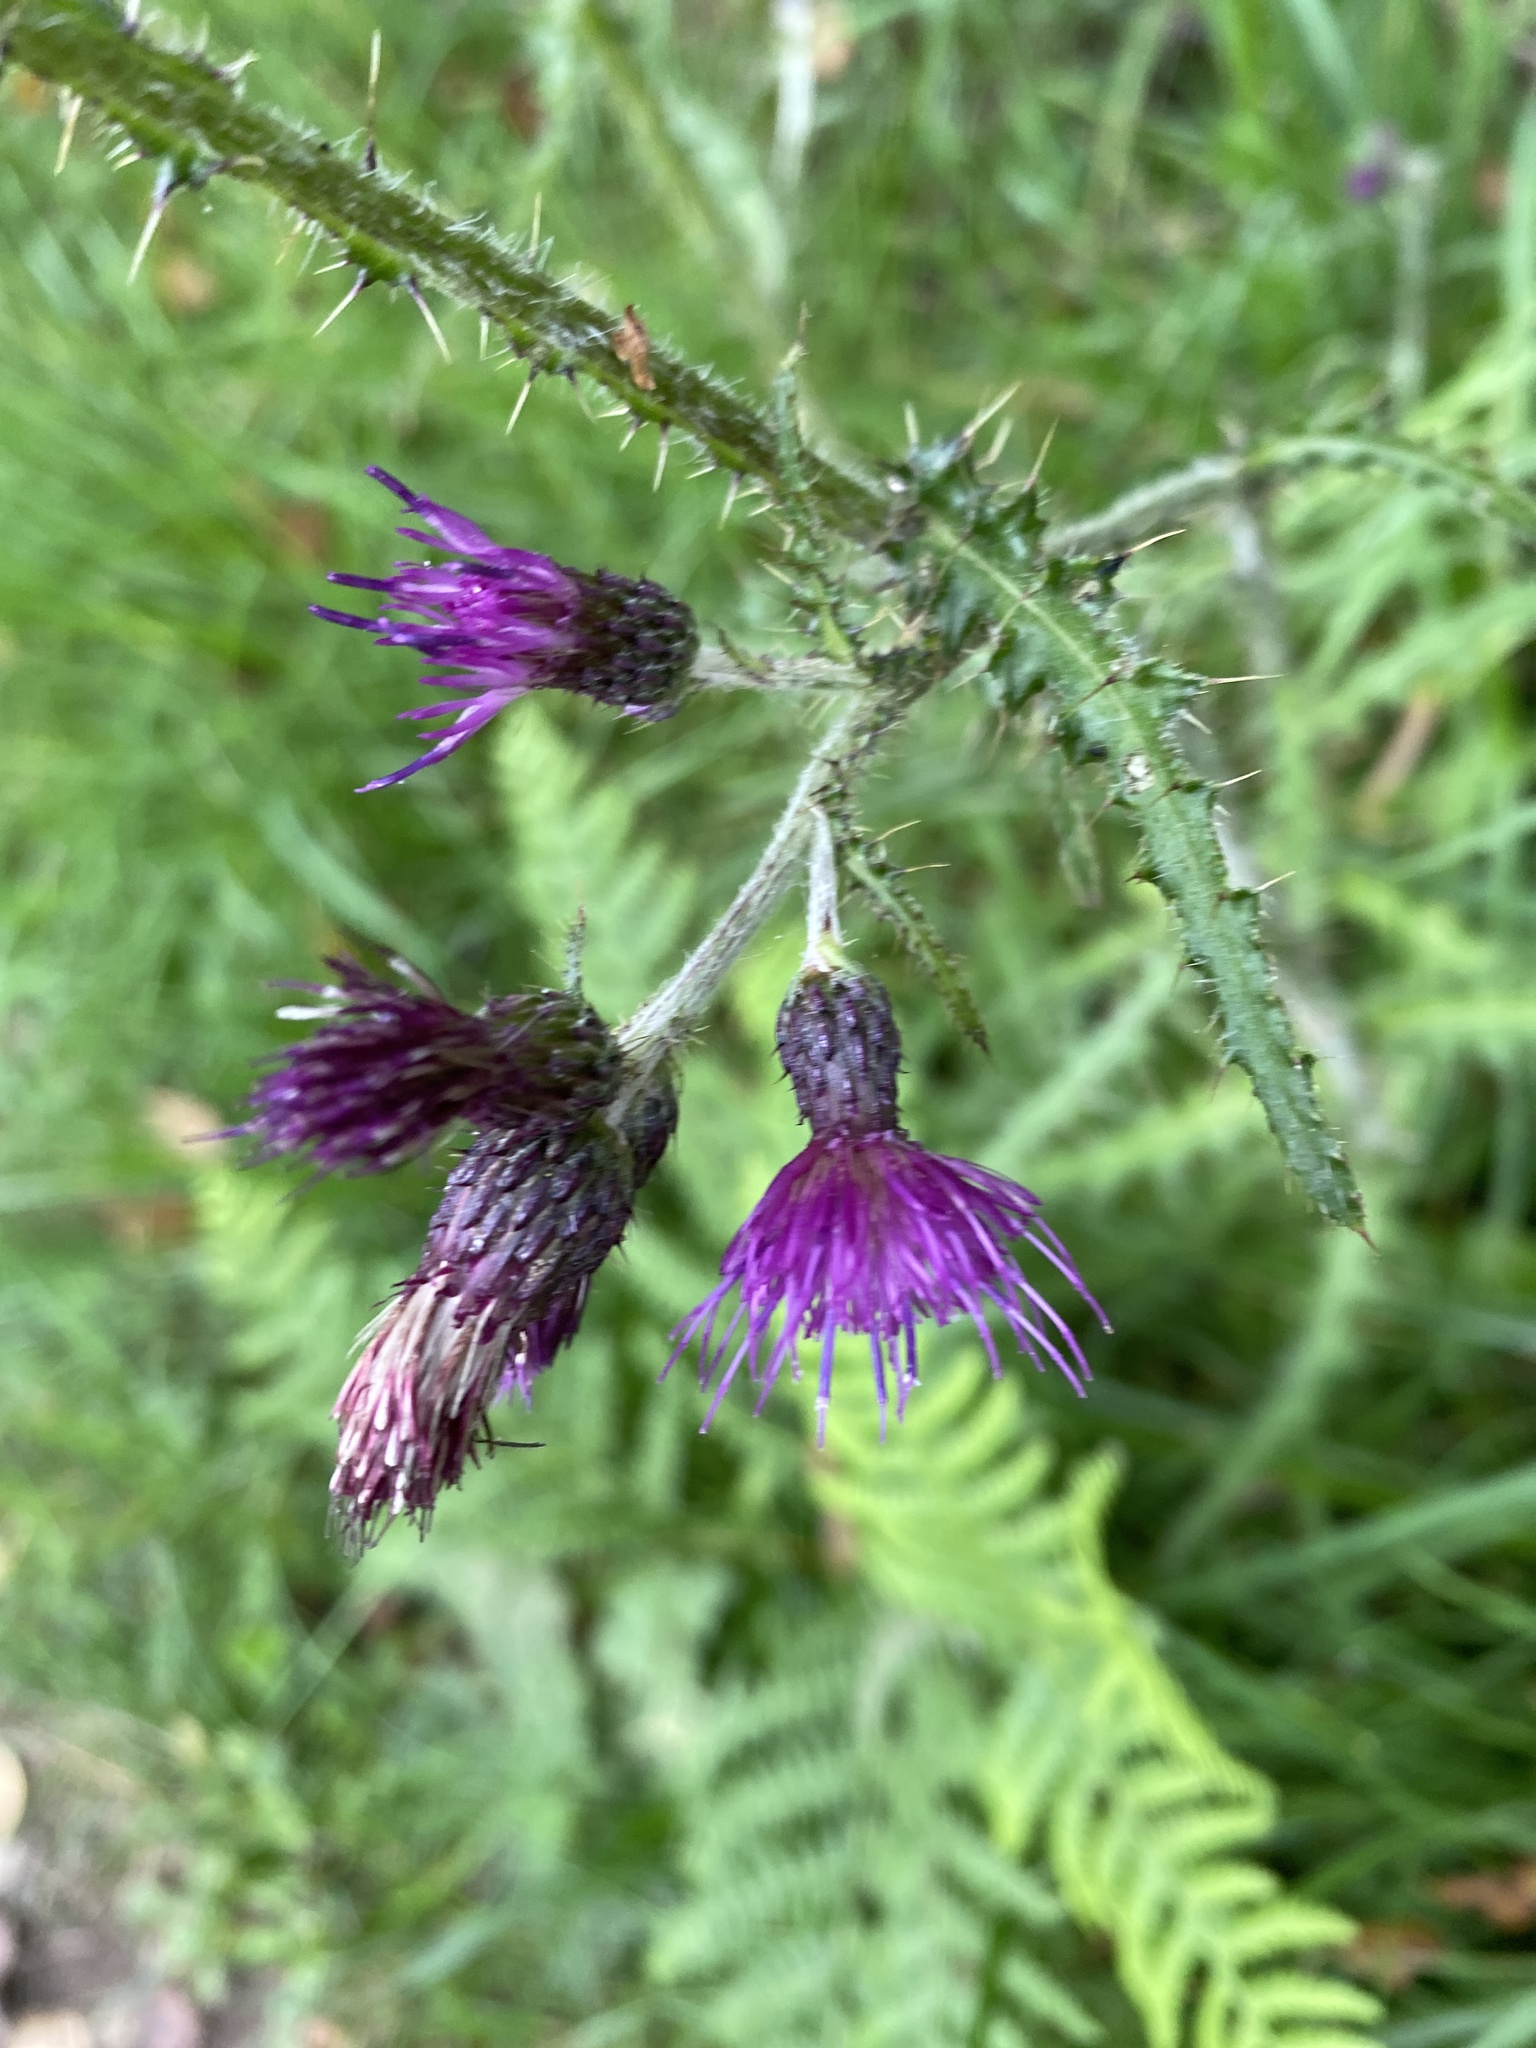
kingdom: Plantae
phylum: Tracheophyta
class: Magnoliopsida
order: Asterales
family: Asteraceae
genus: Cirsium
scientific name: Cirsium palustre
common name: Marsh thistle
